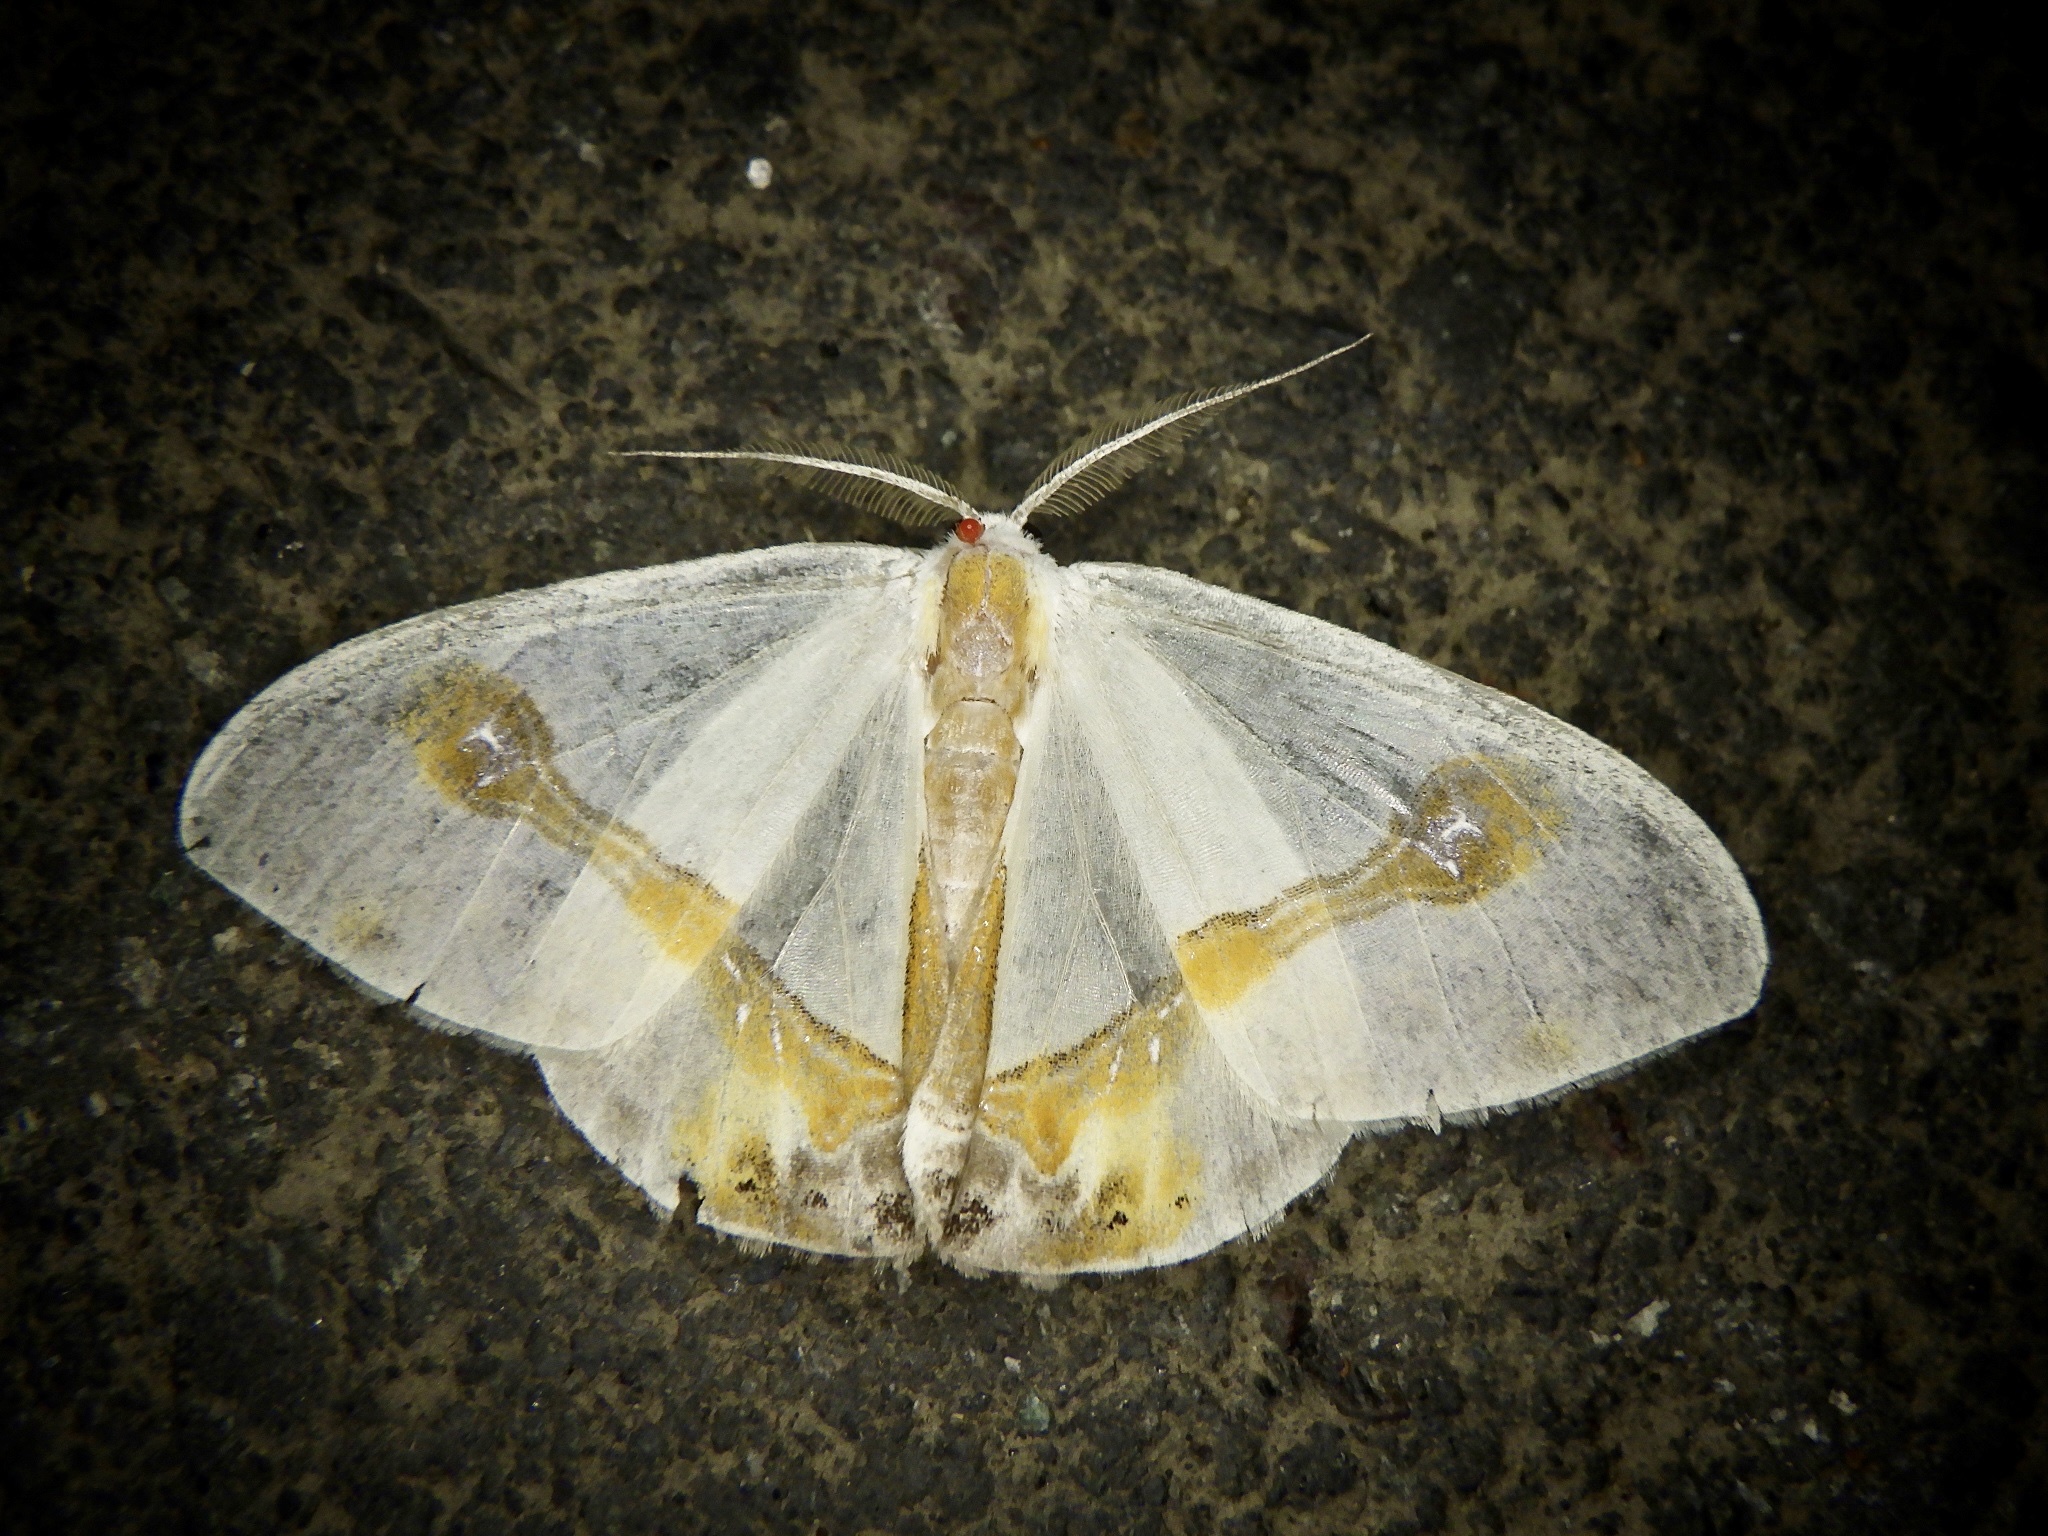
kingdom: Animalia
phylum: Arthropoda
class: Insecta
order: Lepidoptera
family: Drepanidae
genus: Macrocilix
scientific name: Macrocilix mysticata
